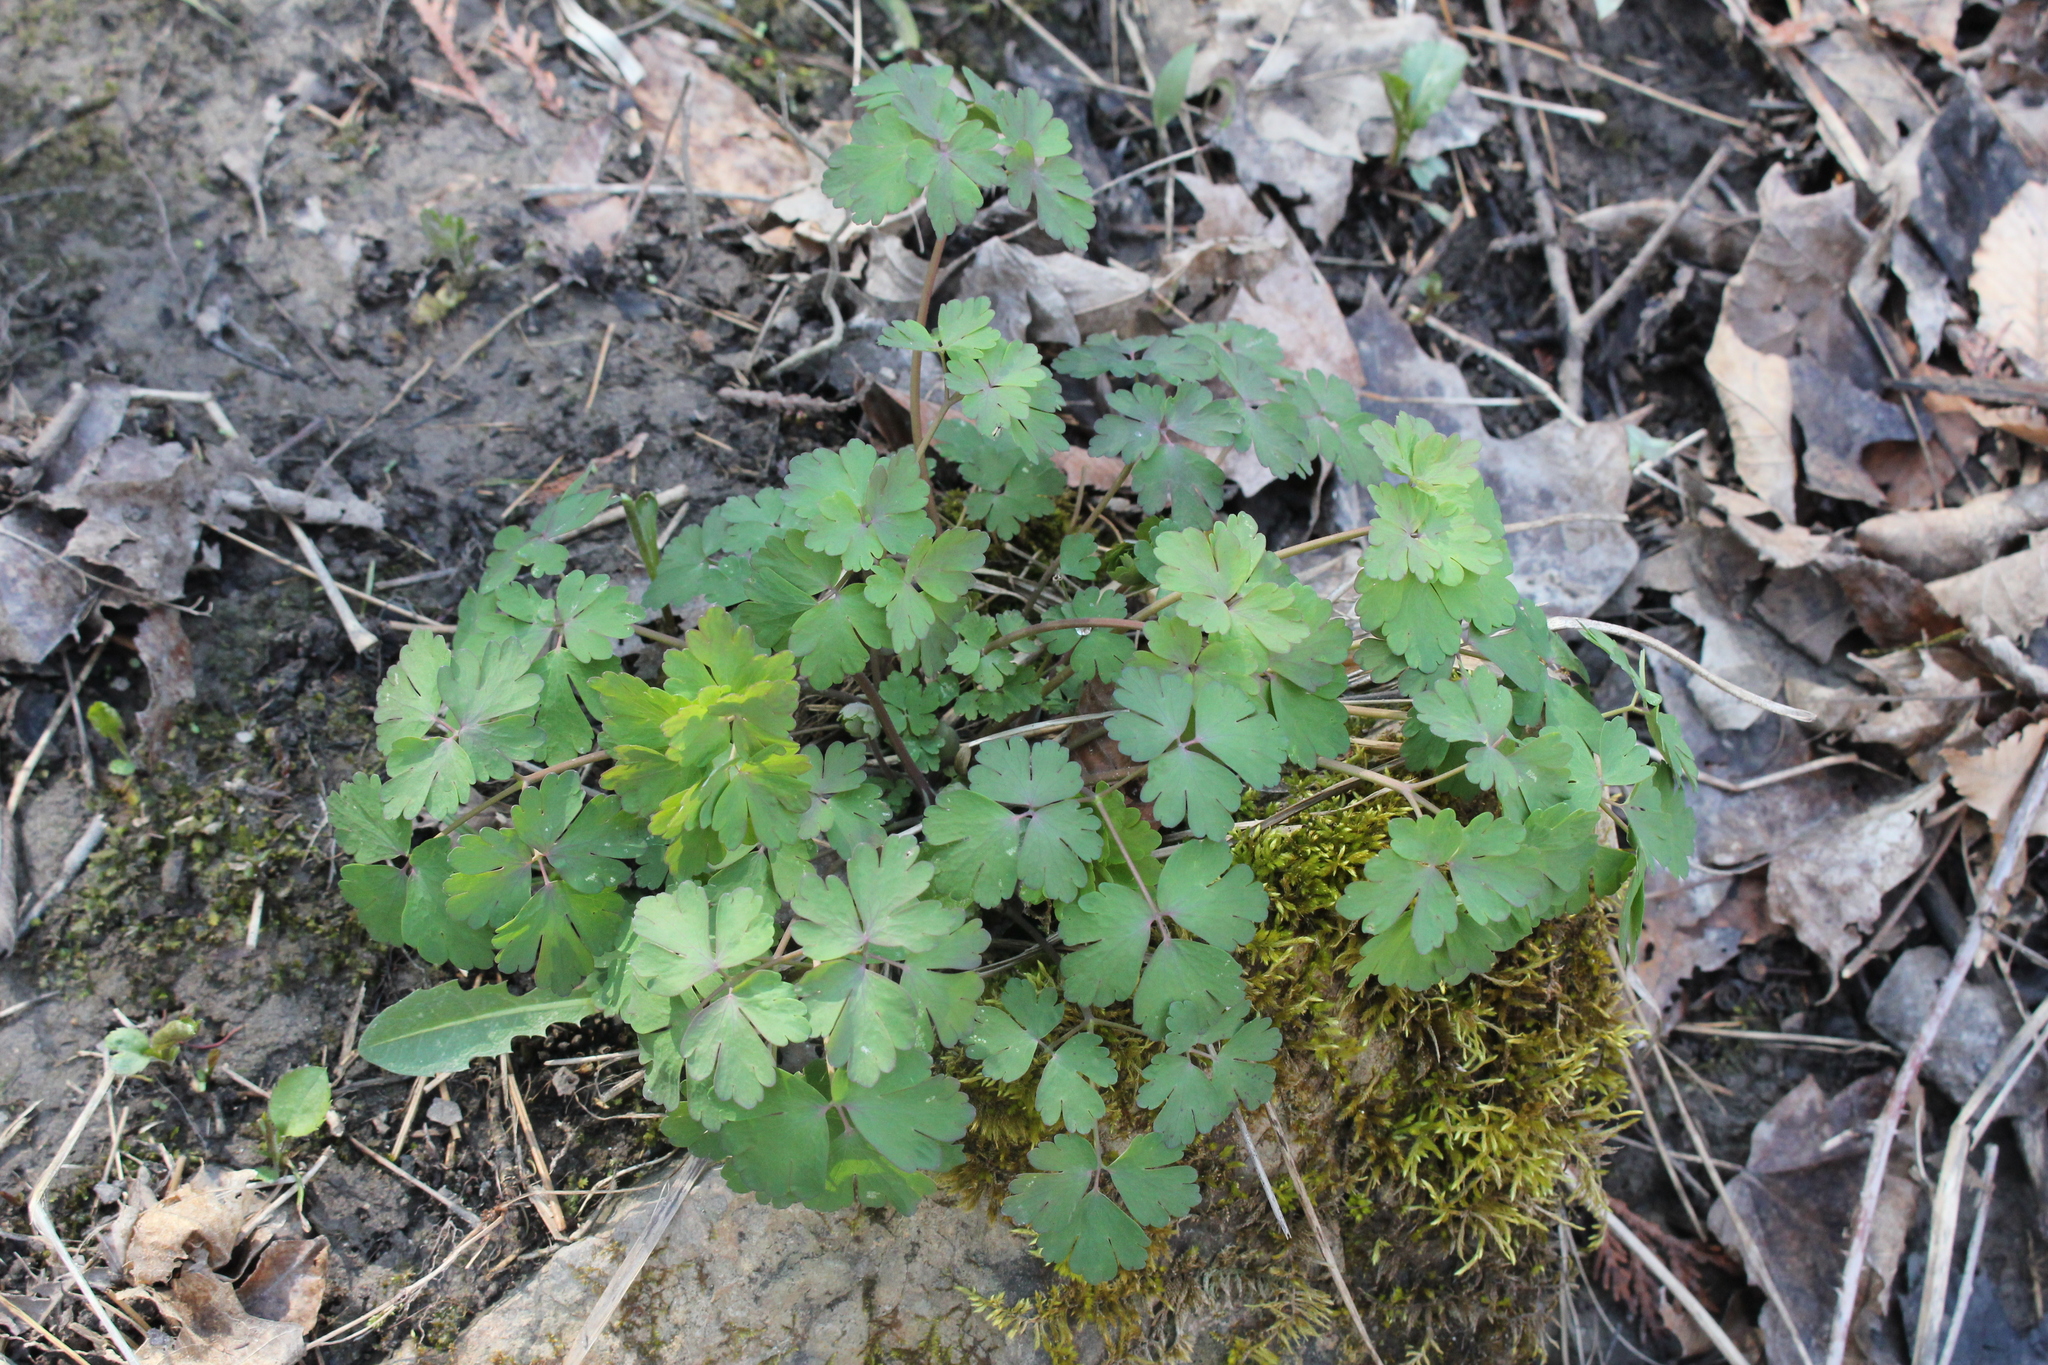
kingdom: Plantae
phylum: Tracheophyta
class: Magnoliopsida
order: Ranunculales
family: Ranunculaceae
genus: Aquilegia
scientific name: Aquilegia canadensis
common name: American columbine
